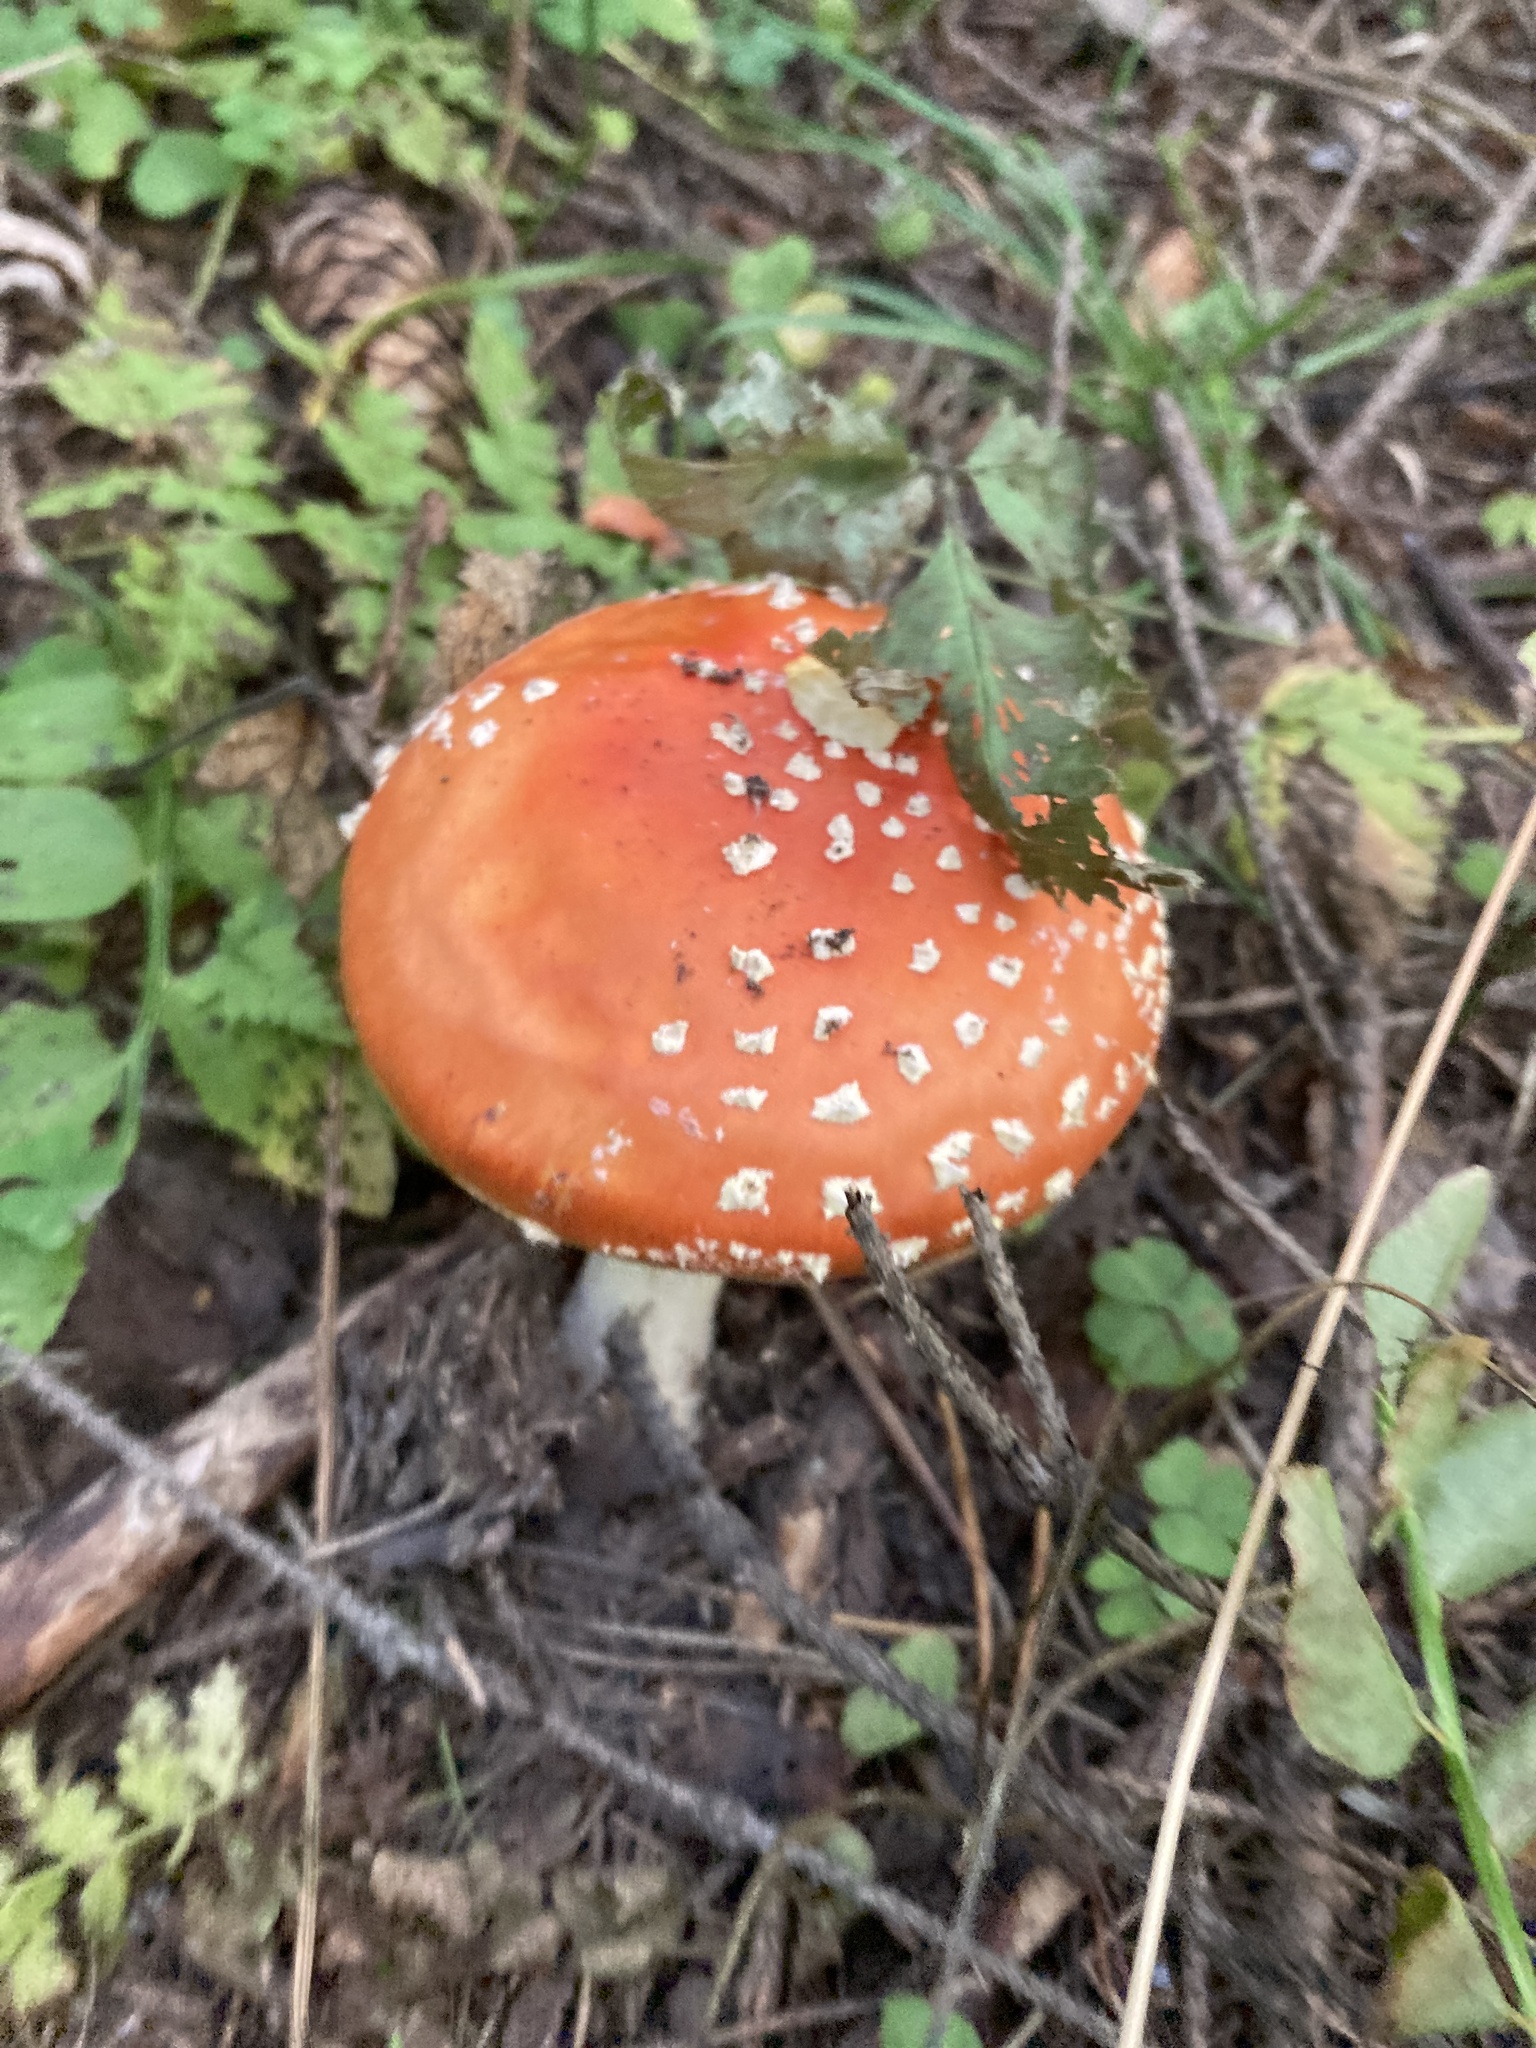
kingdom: Fungi
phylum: Basidiomycota
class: Agaricomycetes
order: Agaricales
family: Amanitaceae
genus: Amanita
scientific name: Amanita muscaria
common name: Fly agaric
